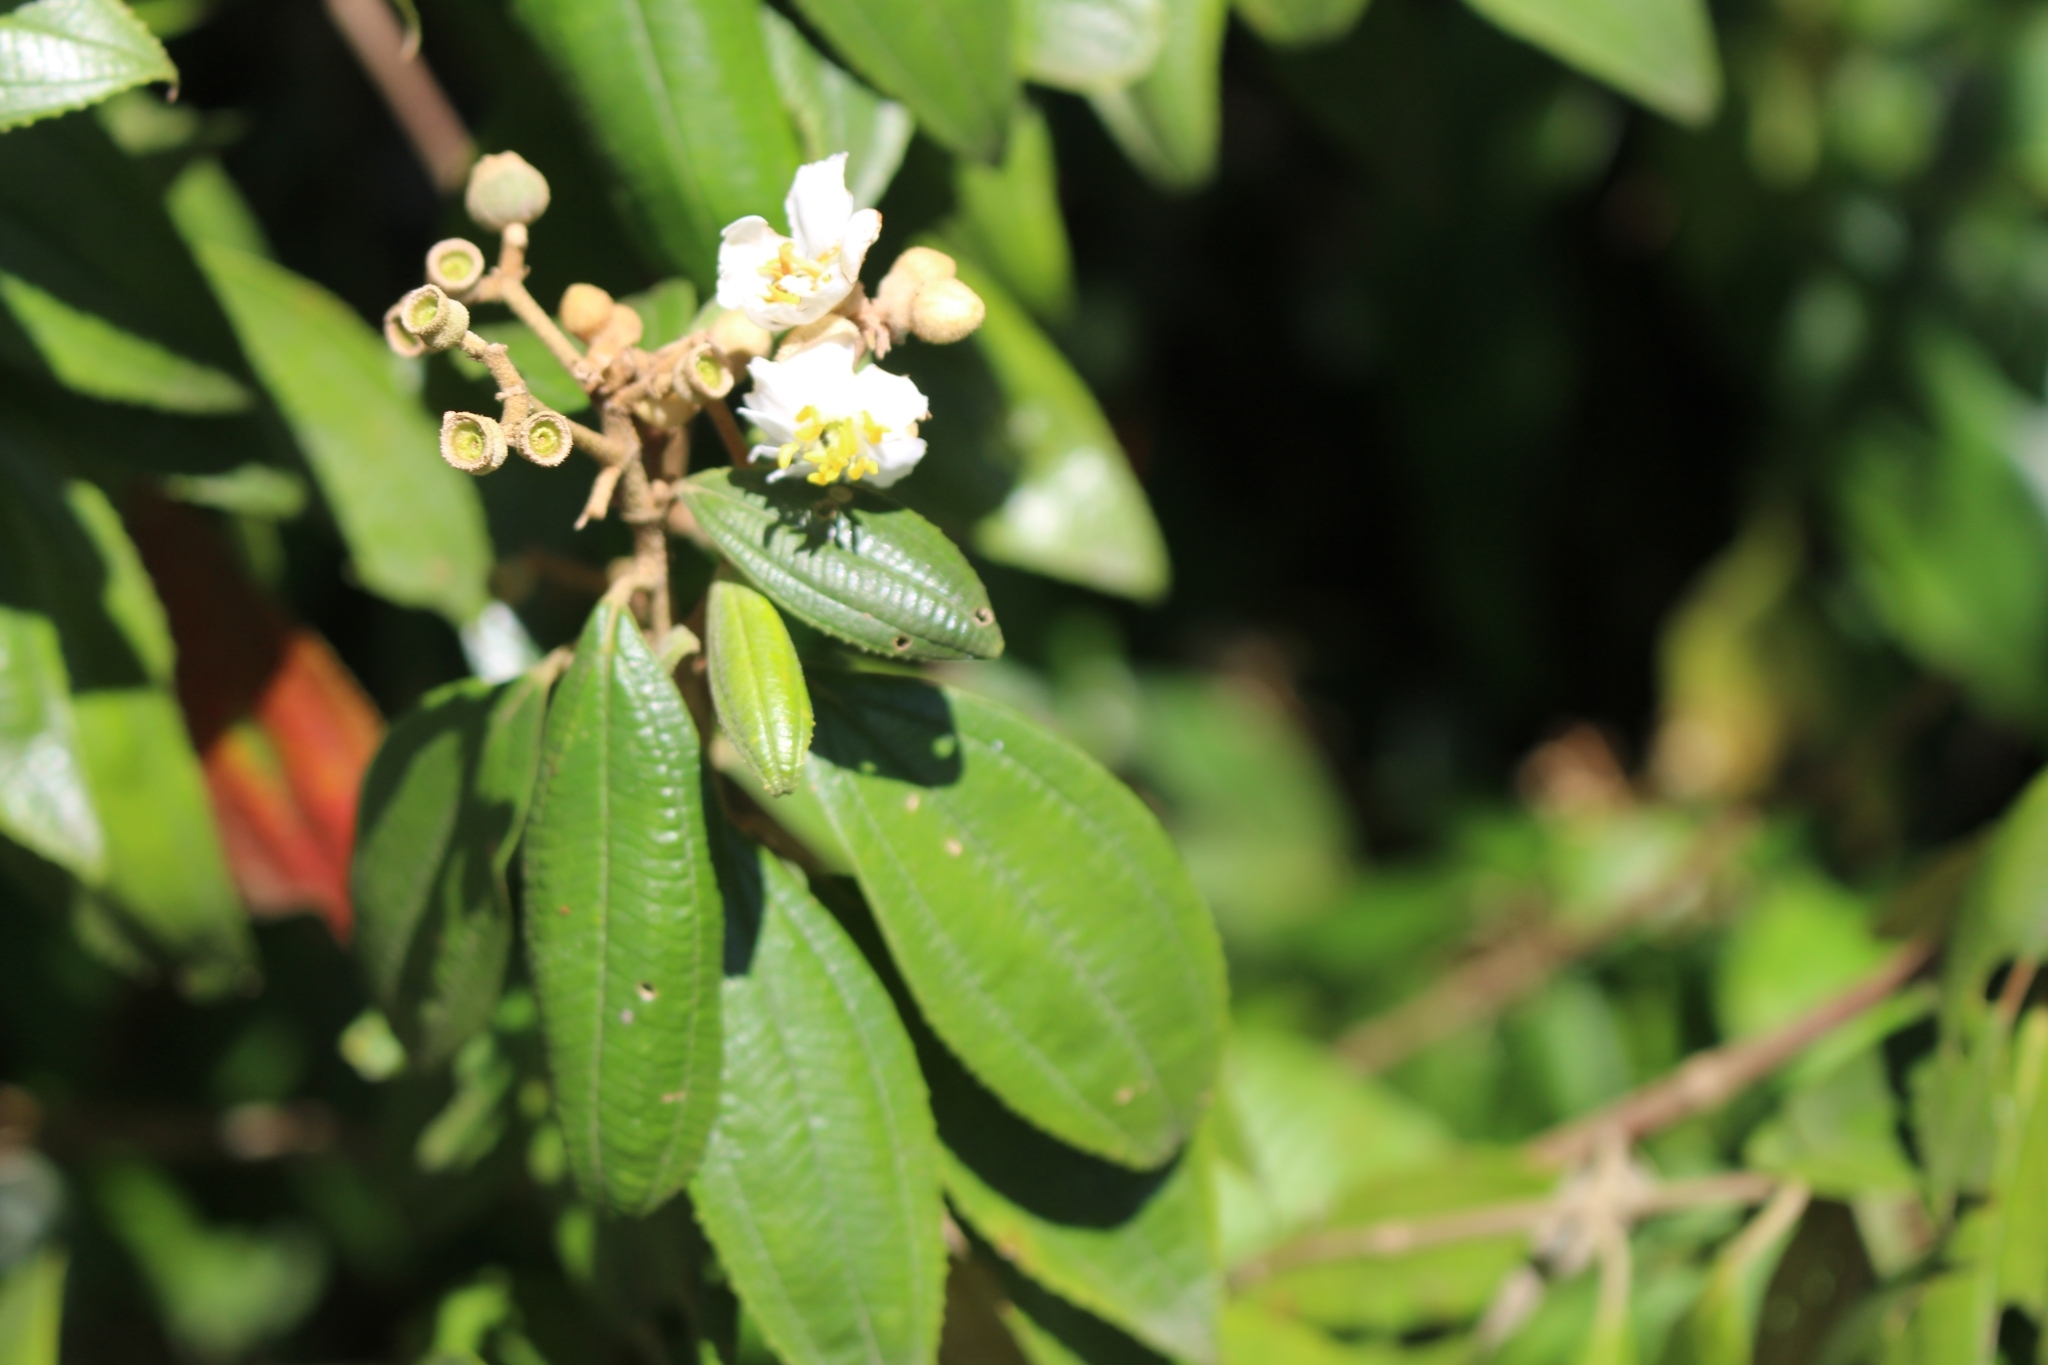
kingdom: Plantae
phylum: Tracheophyta
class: Magnoliopsida
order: Myrtales
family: Melastomataceae
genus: Miconia
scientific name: Miconia xalapensis
